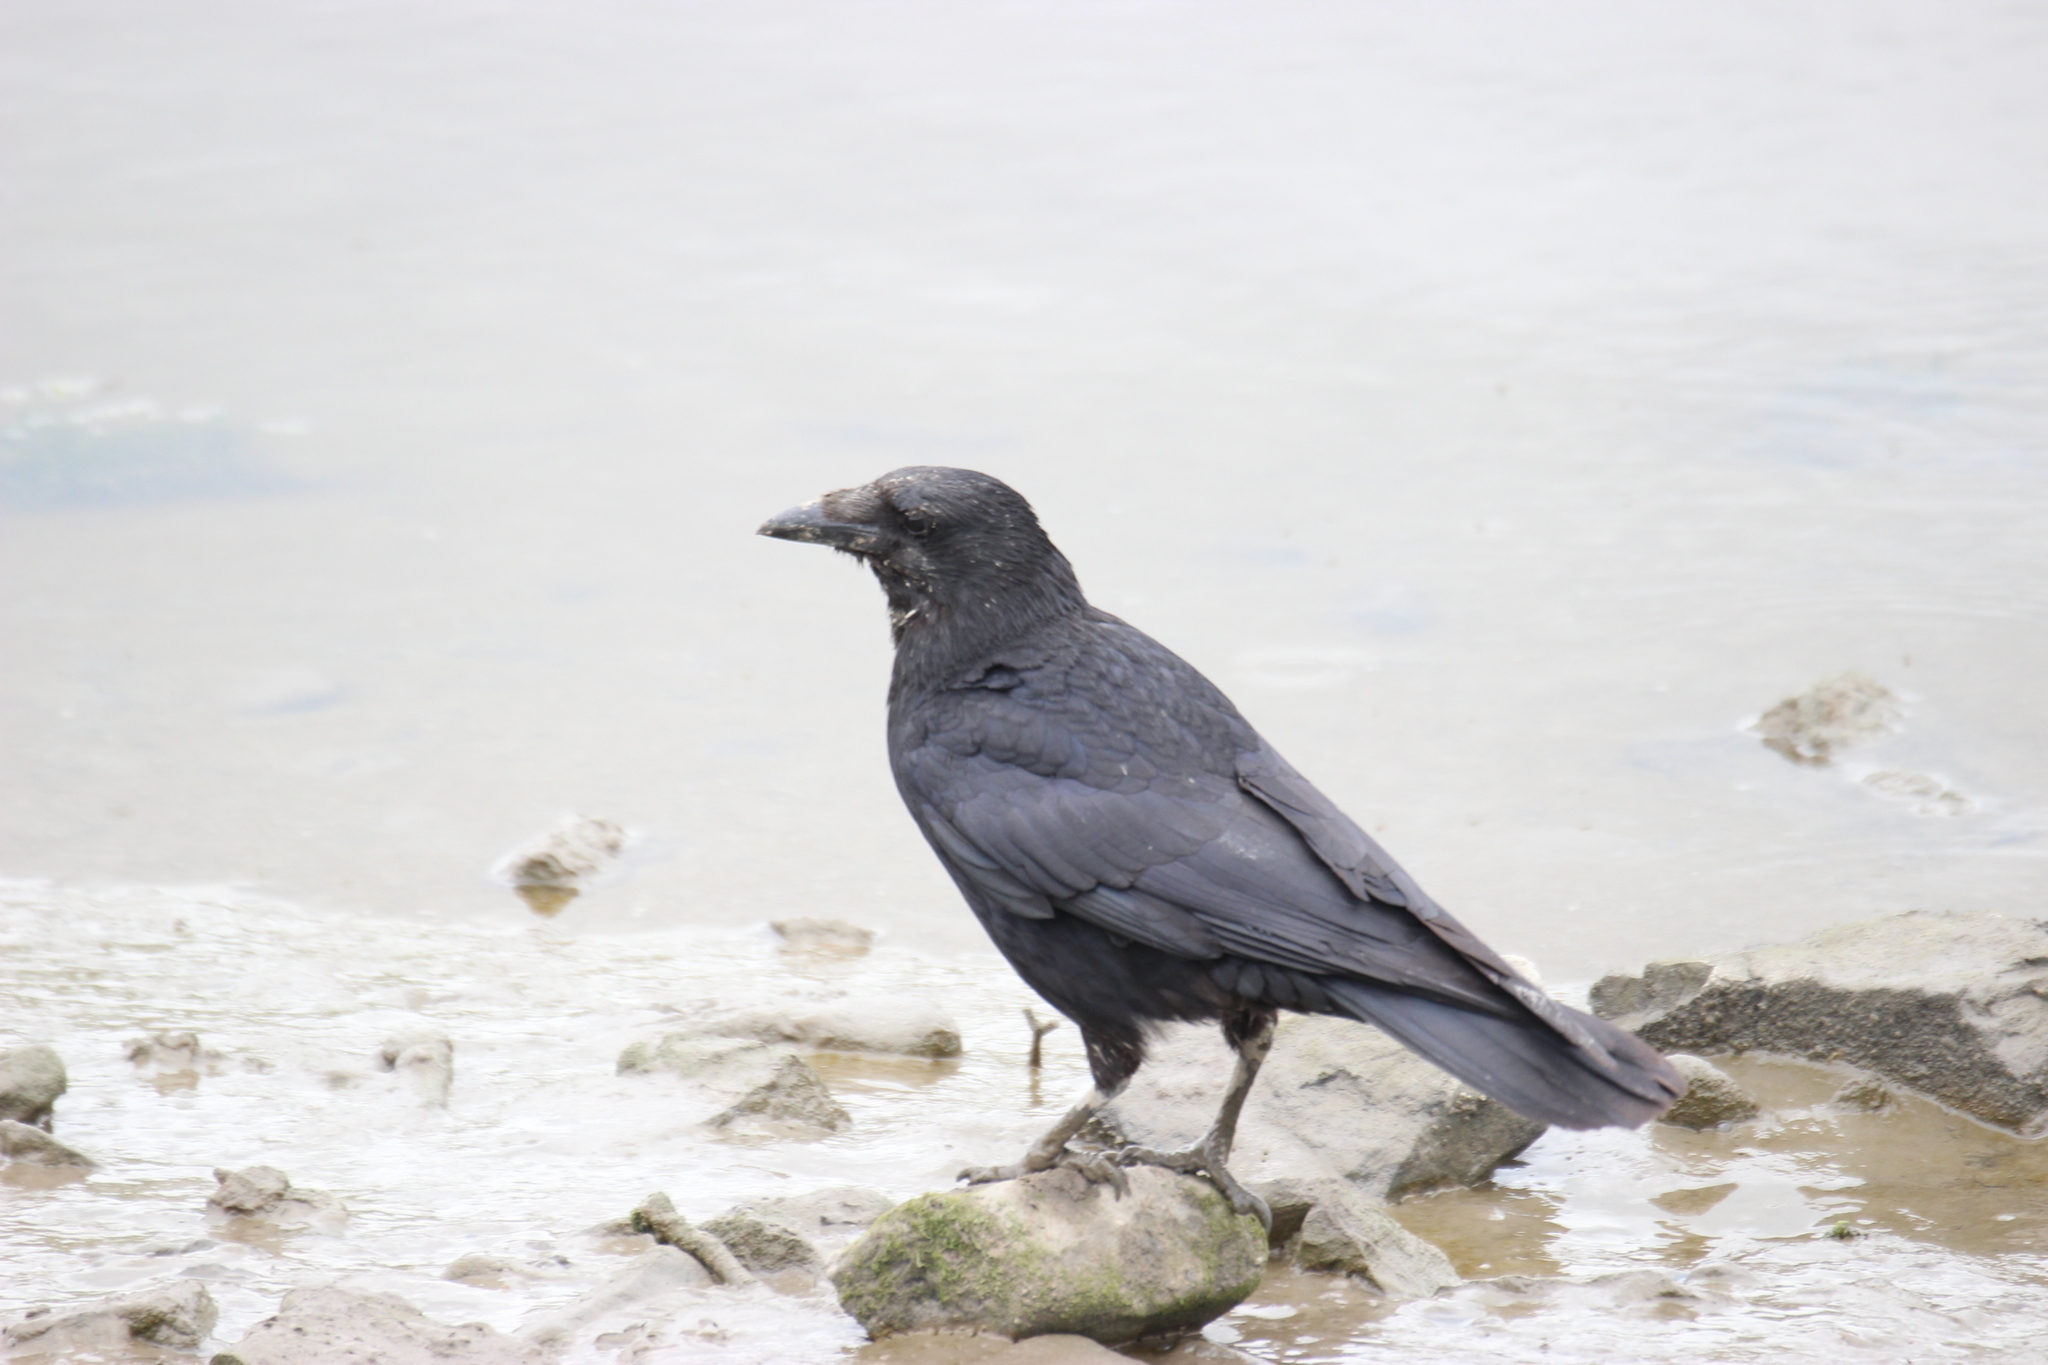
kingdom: Animalia
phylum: Chordata
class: Aves
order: Passeriformes
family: Corvidae
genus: Corvus
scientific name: Corvus corone
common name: Carrion crow
